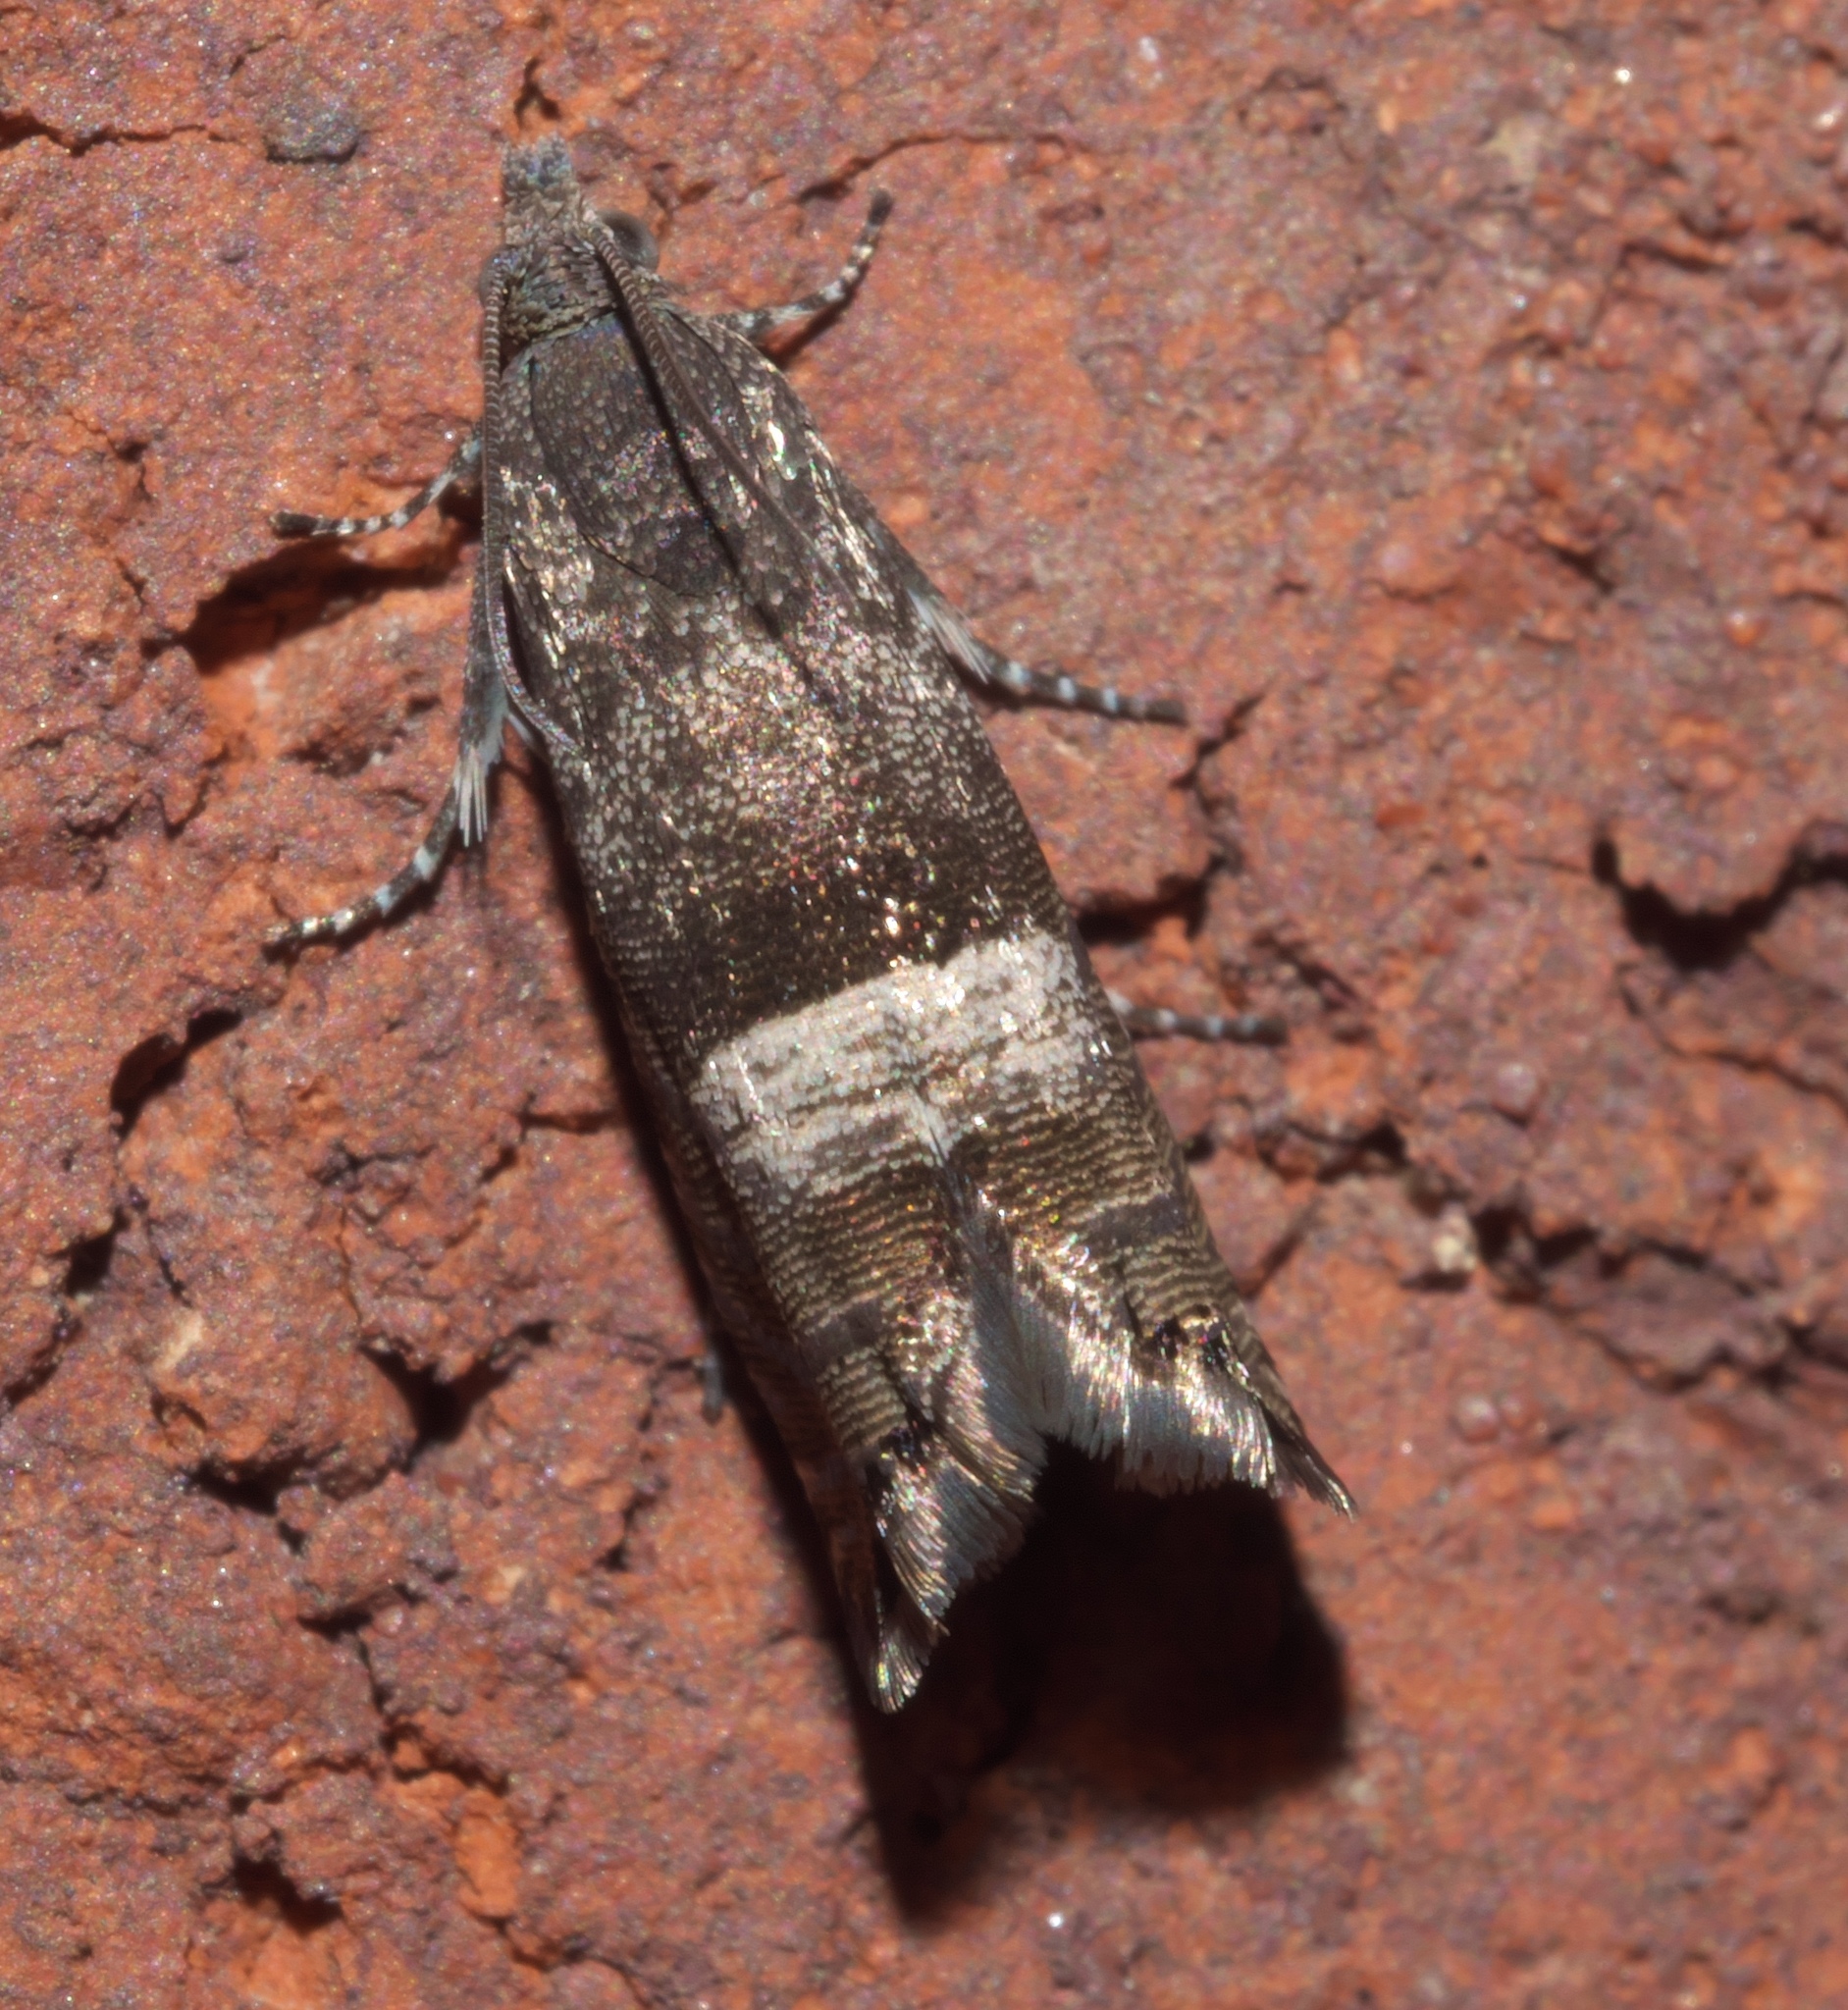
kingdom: Animalia
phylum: Arthropoda
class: Insecta
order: Lepidoptera
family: Tortricidae
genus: Sereda
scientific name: Sereda tautana
